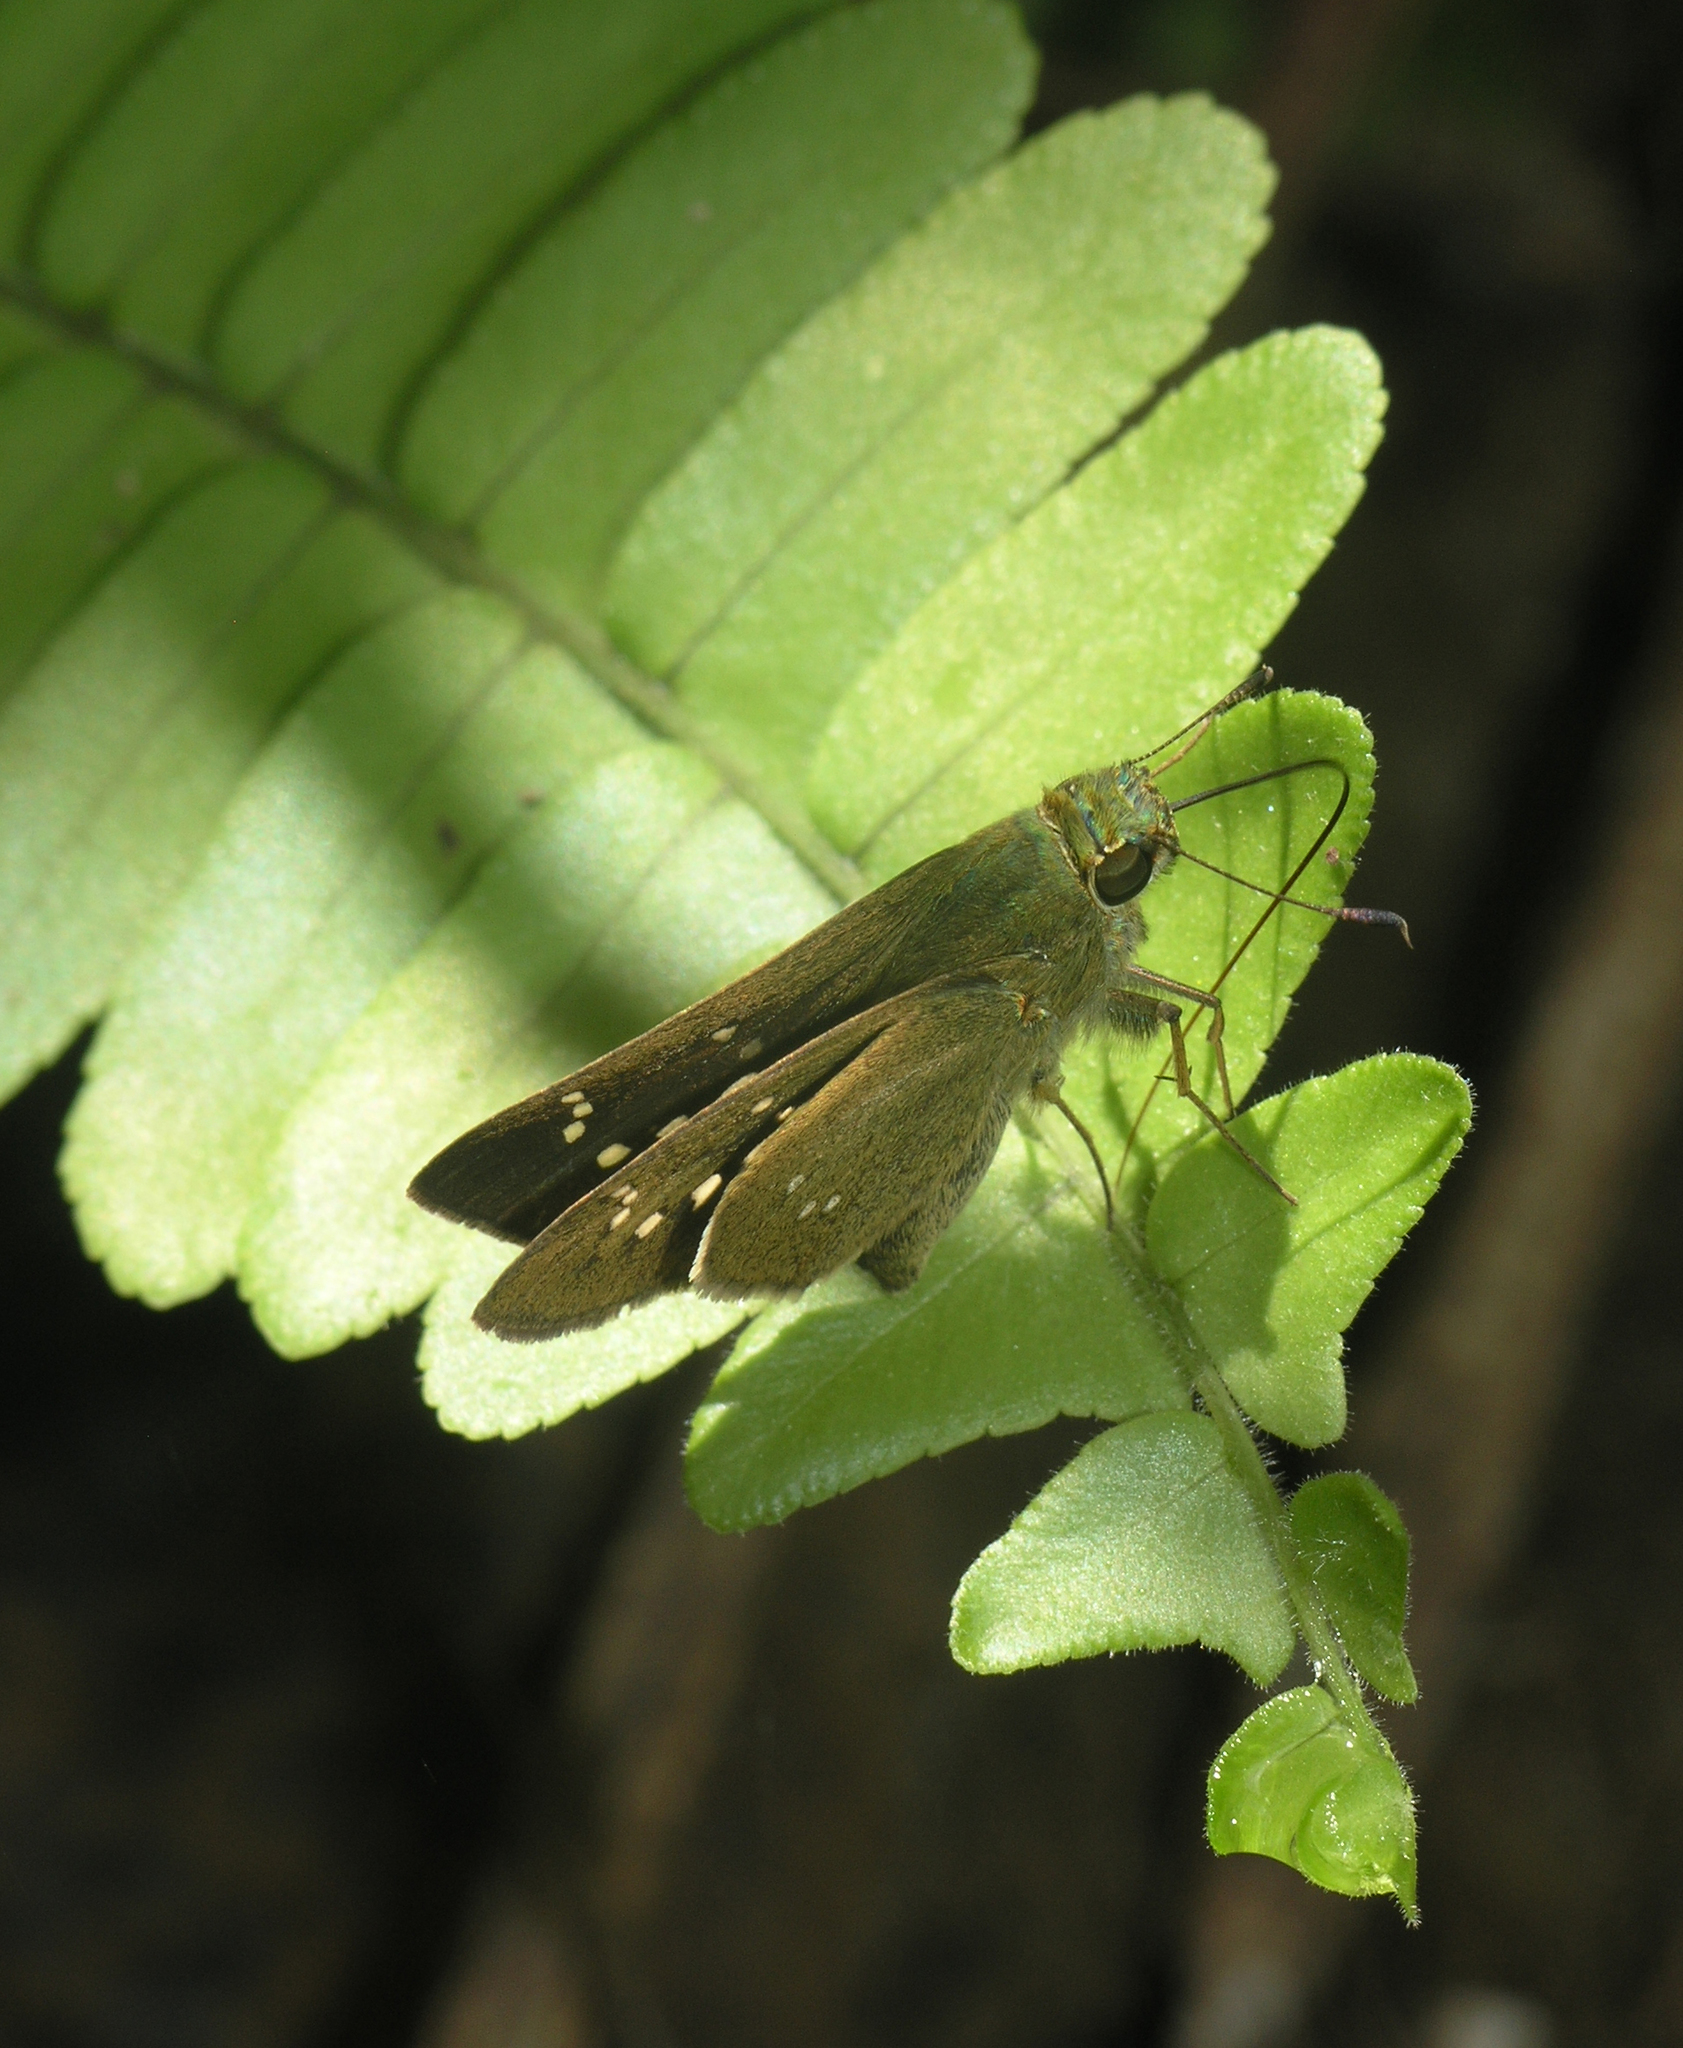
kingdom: Animalia
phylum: Arthropoda
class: Insecta
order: Lepidoptera
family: Hesperiidae
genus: Borbo
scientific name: Borbo cinnara
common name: Formosan swift
